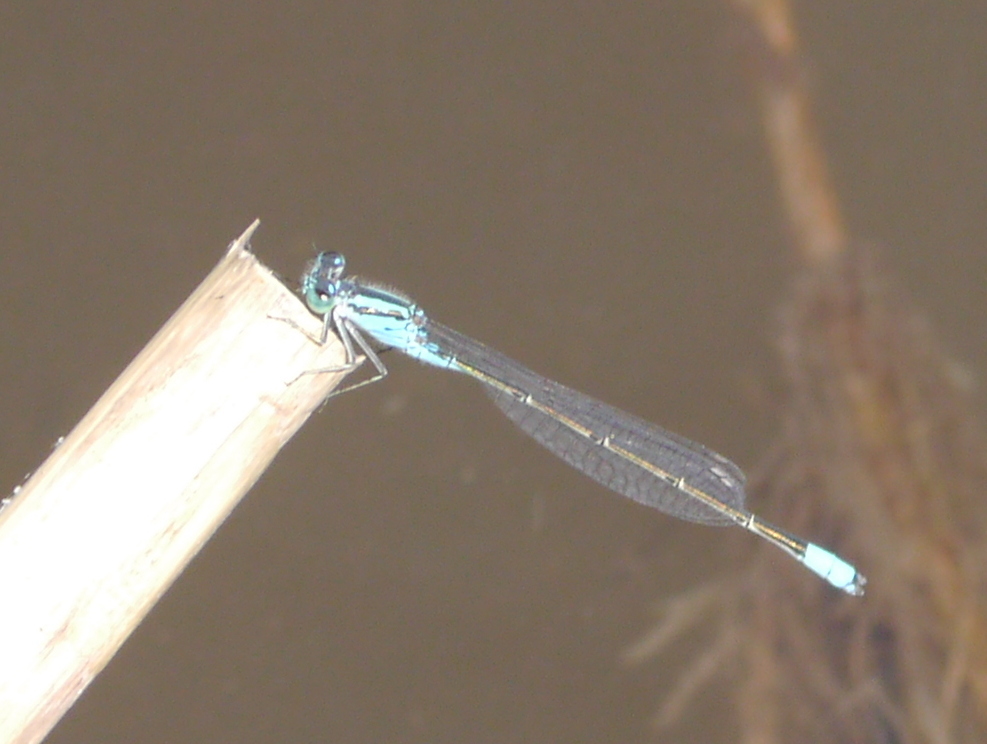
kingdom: Animalia
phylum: Arthropoda
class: Insecta
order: Odonata
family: Coenagrionidae
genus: Pseudagrion
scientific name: Pseudagrion coeleste
